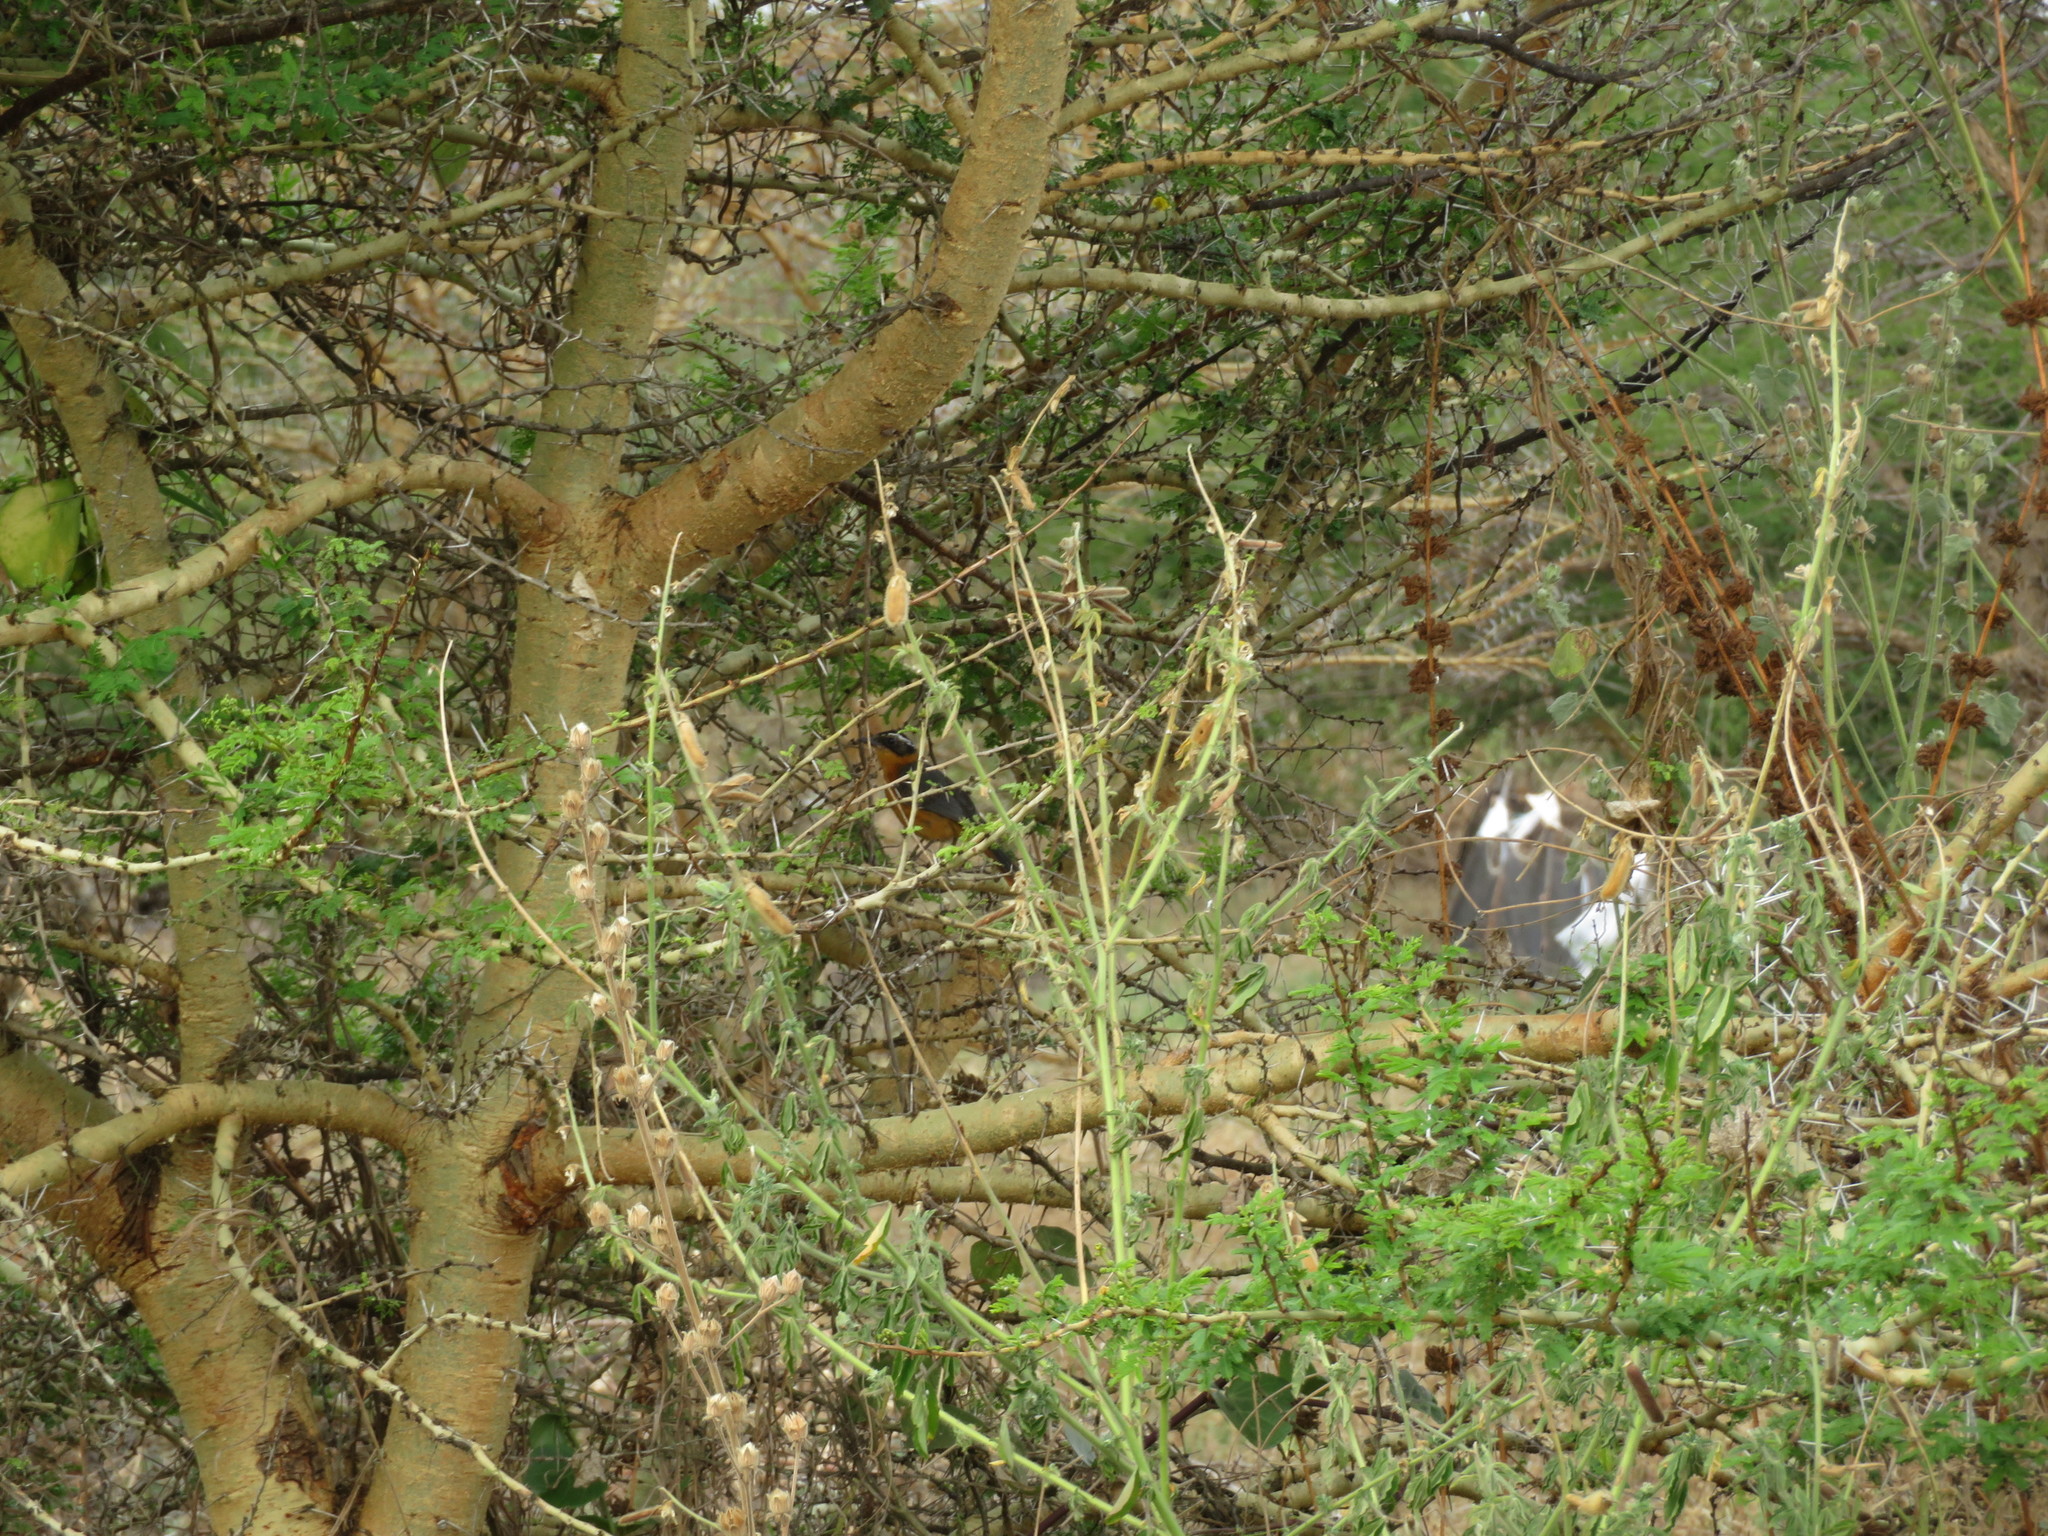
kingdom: Animalia
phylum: Chordata
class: Aves
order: Passeriformes
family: Muscicapidae
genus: Cossypha
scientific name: Cossypha heuglini
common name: White-browed robin-chat
